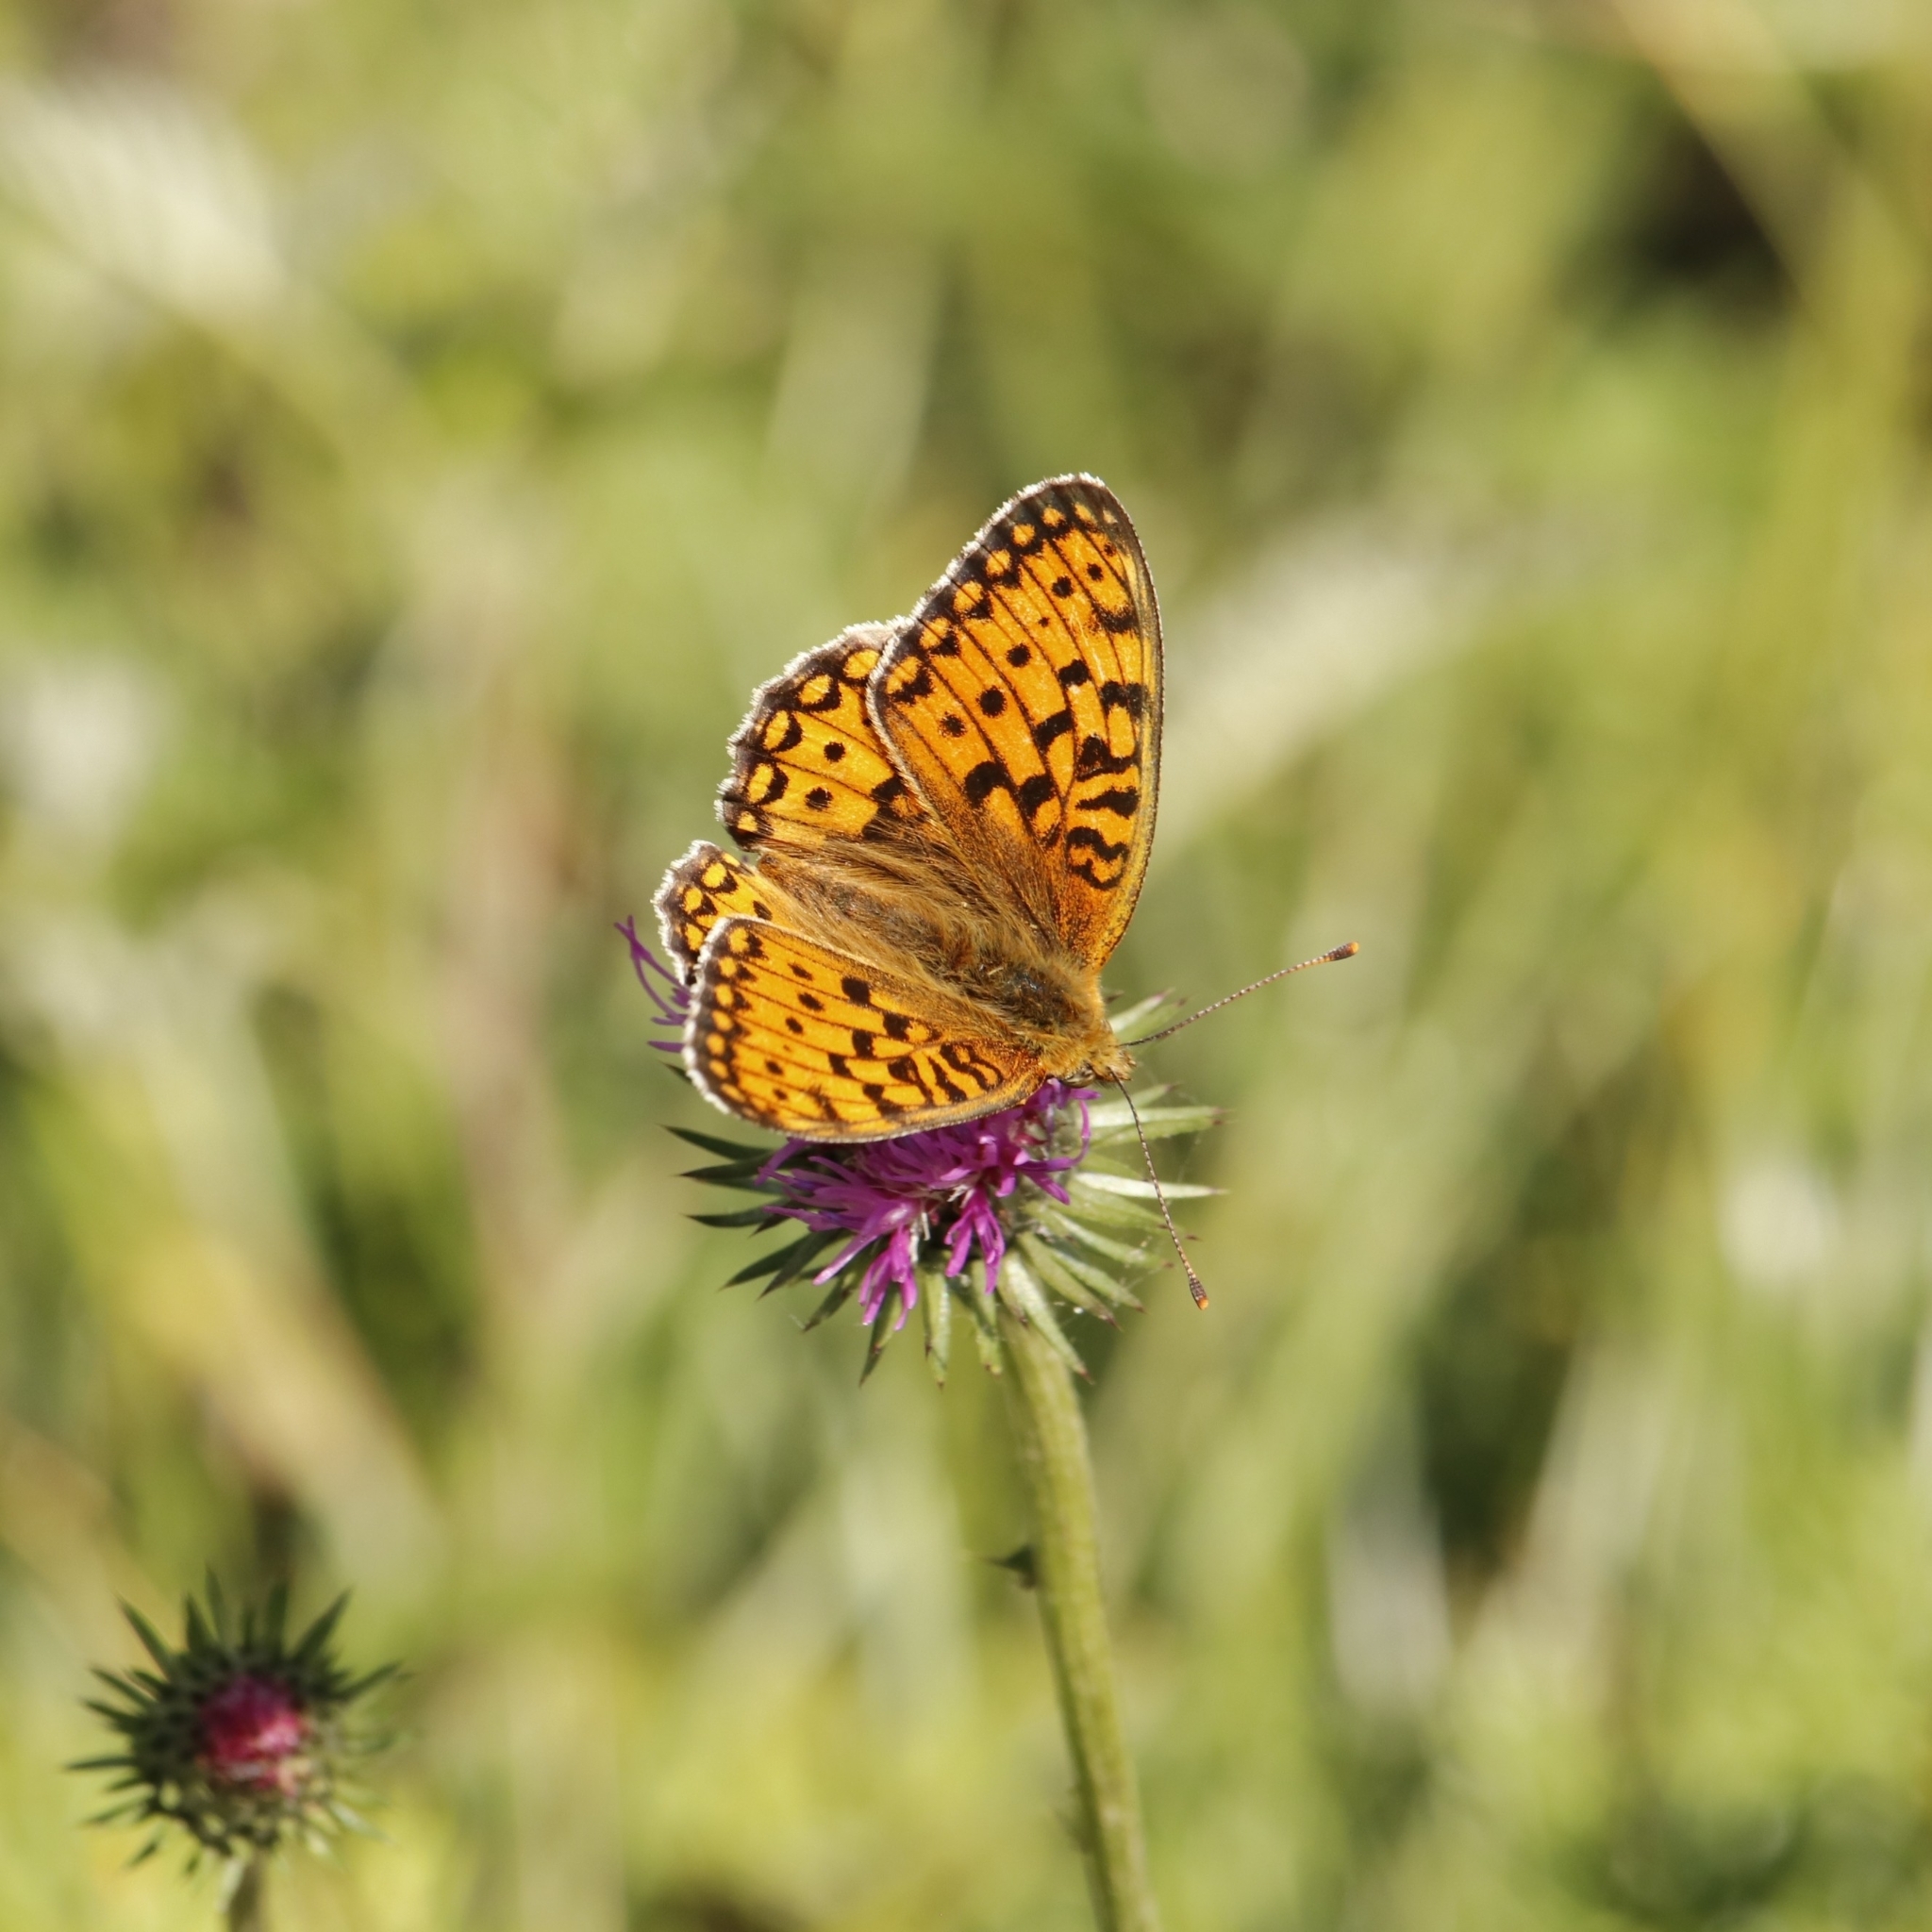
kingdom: Animalia
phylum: Arthropoda
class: Insecta
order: Lepidoptera
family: Nymphalidae
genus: Fabriciana
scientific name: Fabriciana niobe
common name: Niobe fritillary
